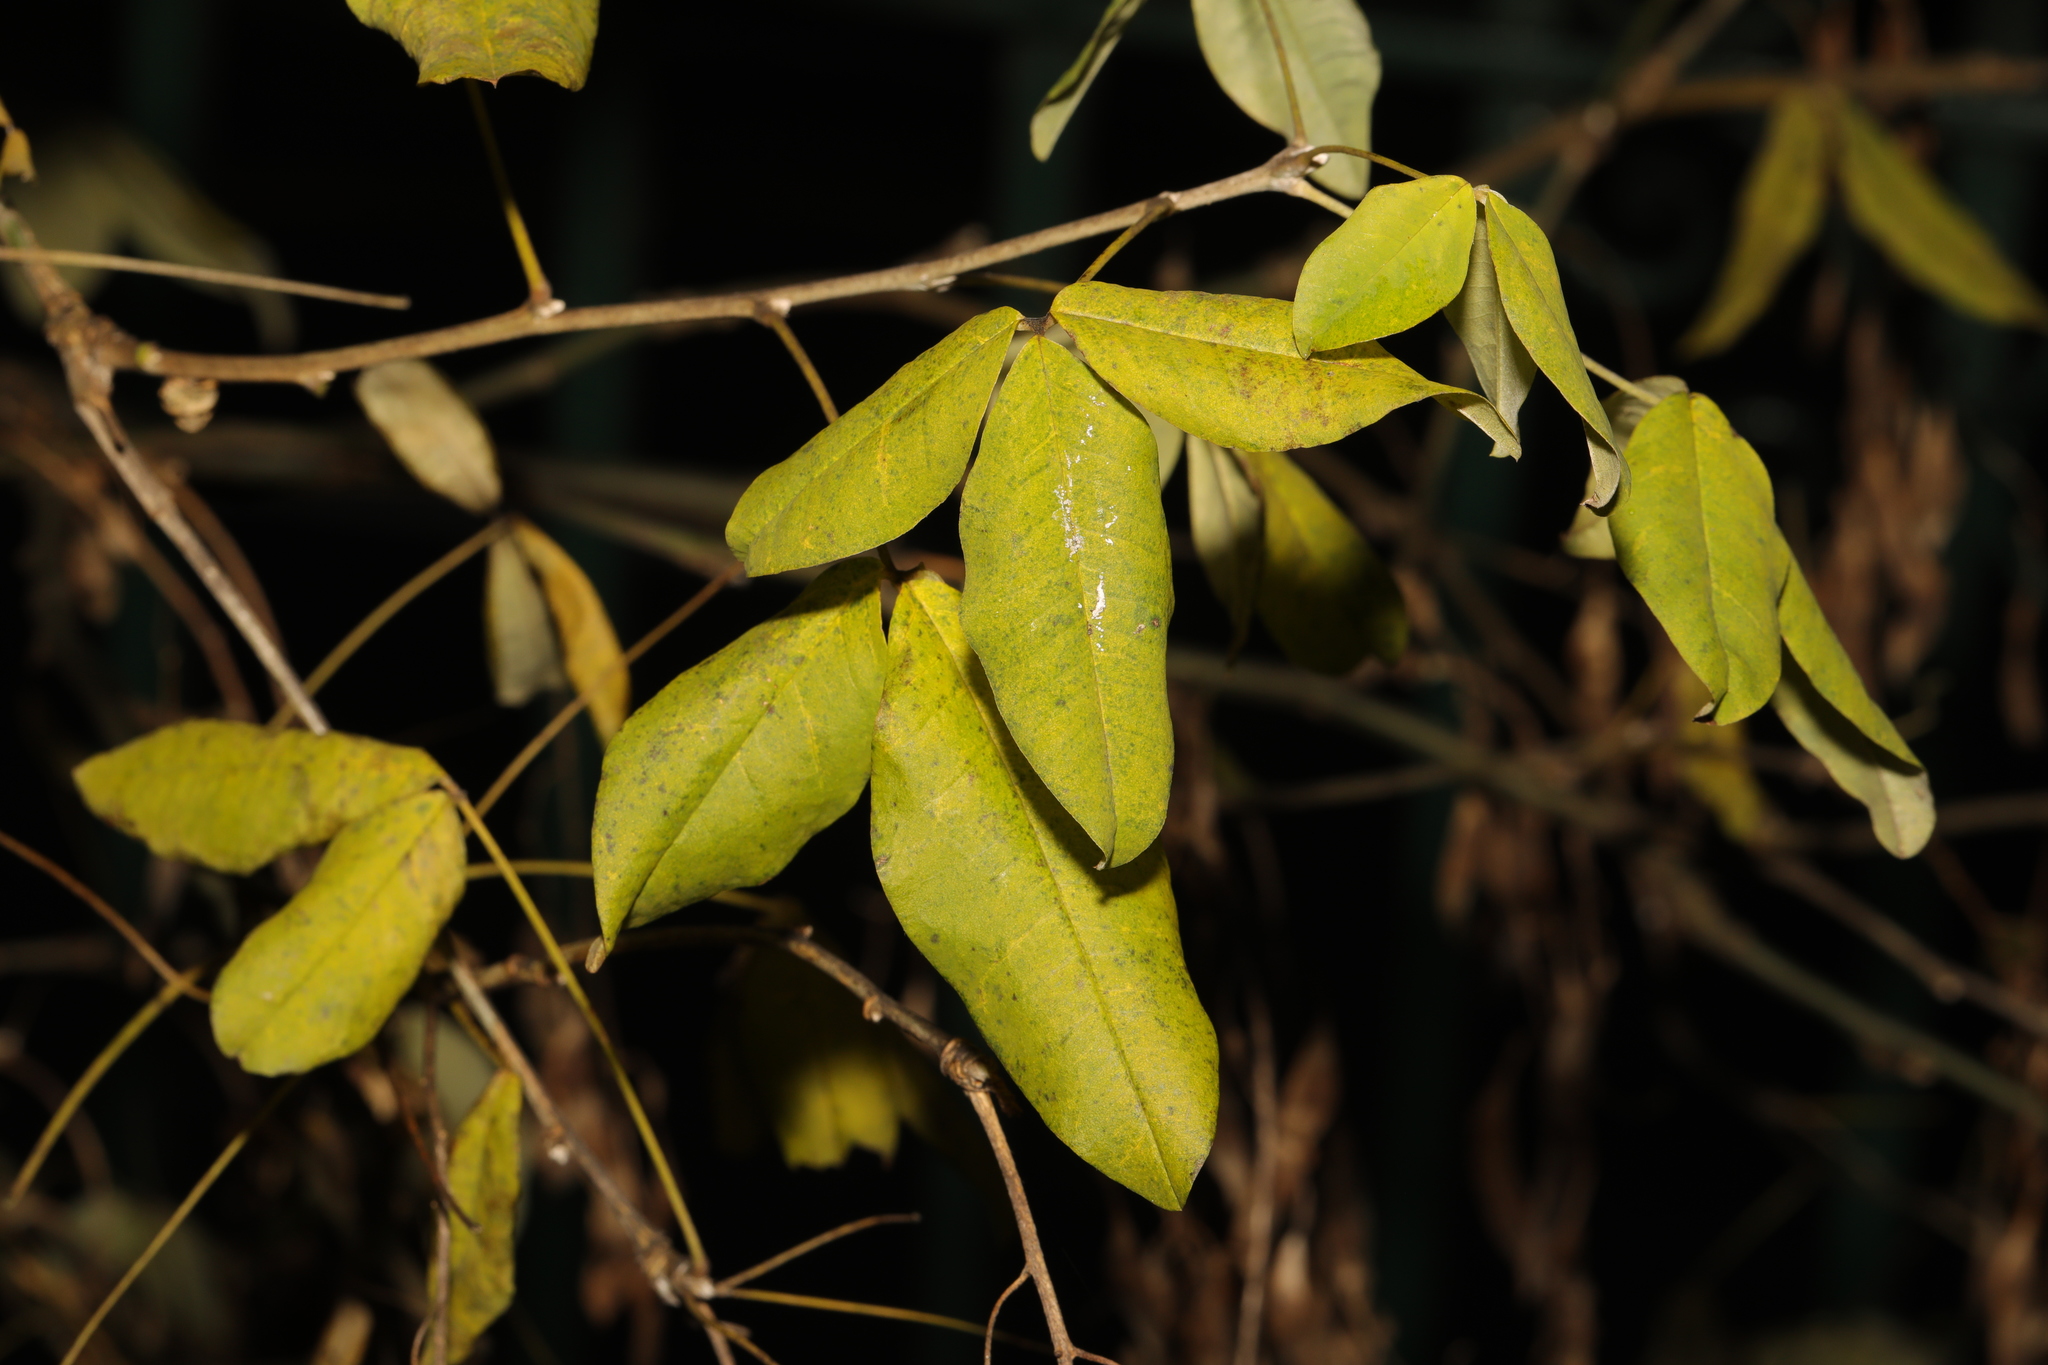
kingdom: Plantae
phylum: Tracheophyta
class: Magnoliopsida
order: Fabales
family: Fabaceae
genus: Laburnum
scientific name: Laburnum anagyroides
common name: Laburnum
